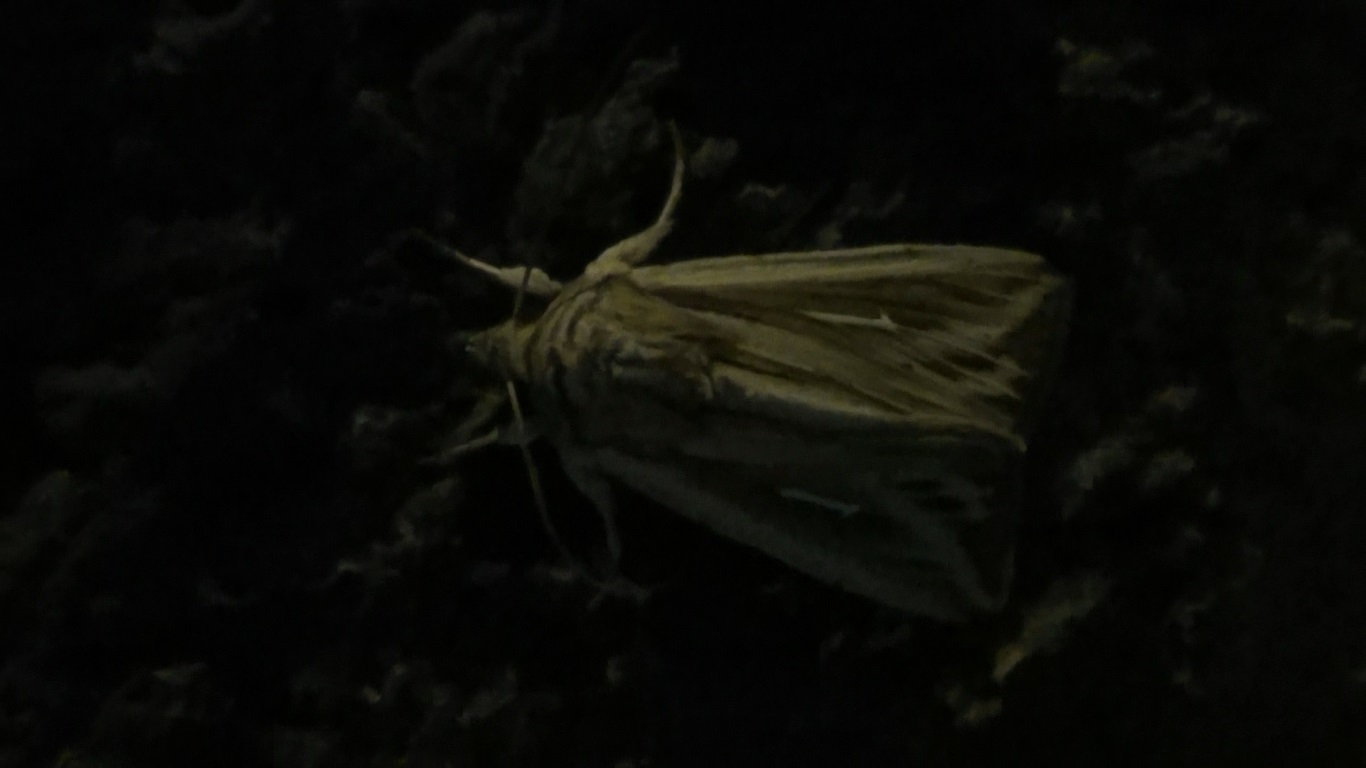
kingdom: Animalia
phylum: Arthropoda
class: Insecta
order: Lepidoptera
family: Noctuidae
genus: Mythimna
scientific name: Mythimna l-album
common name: L-album wainscot
